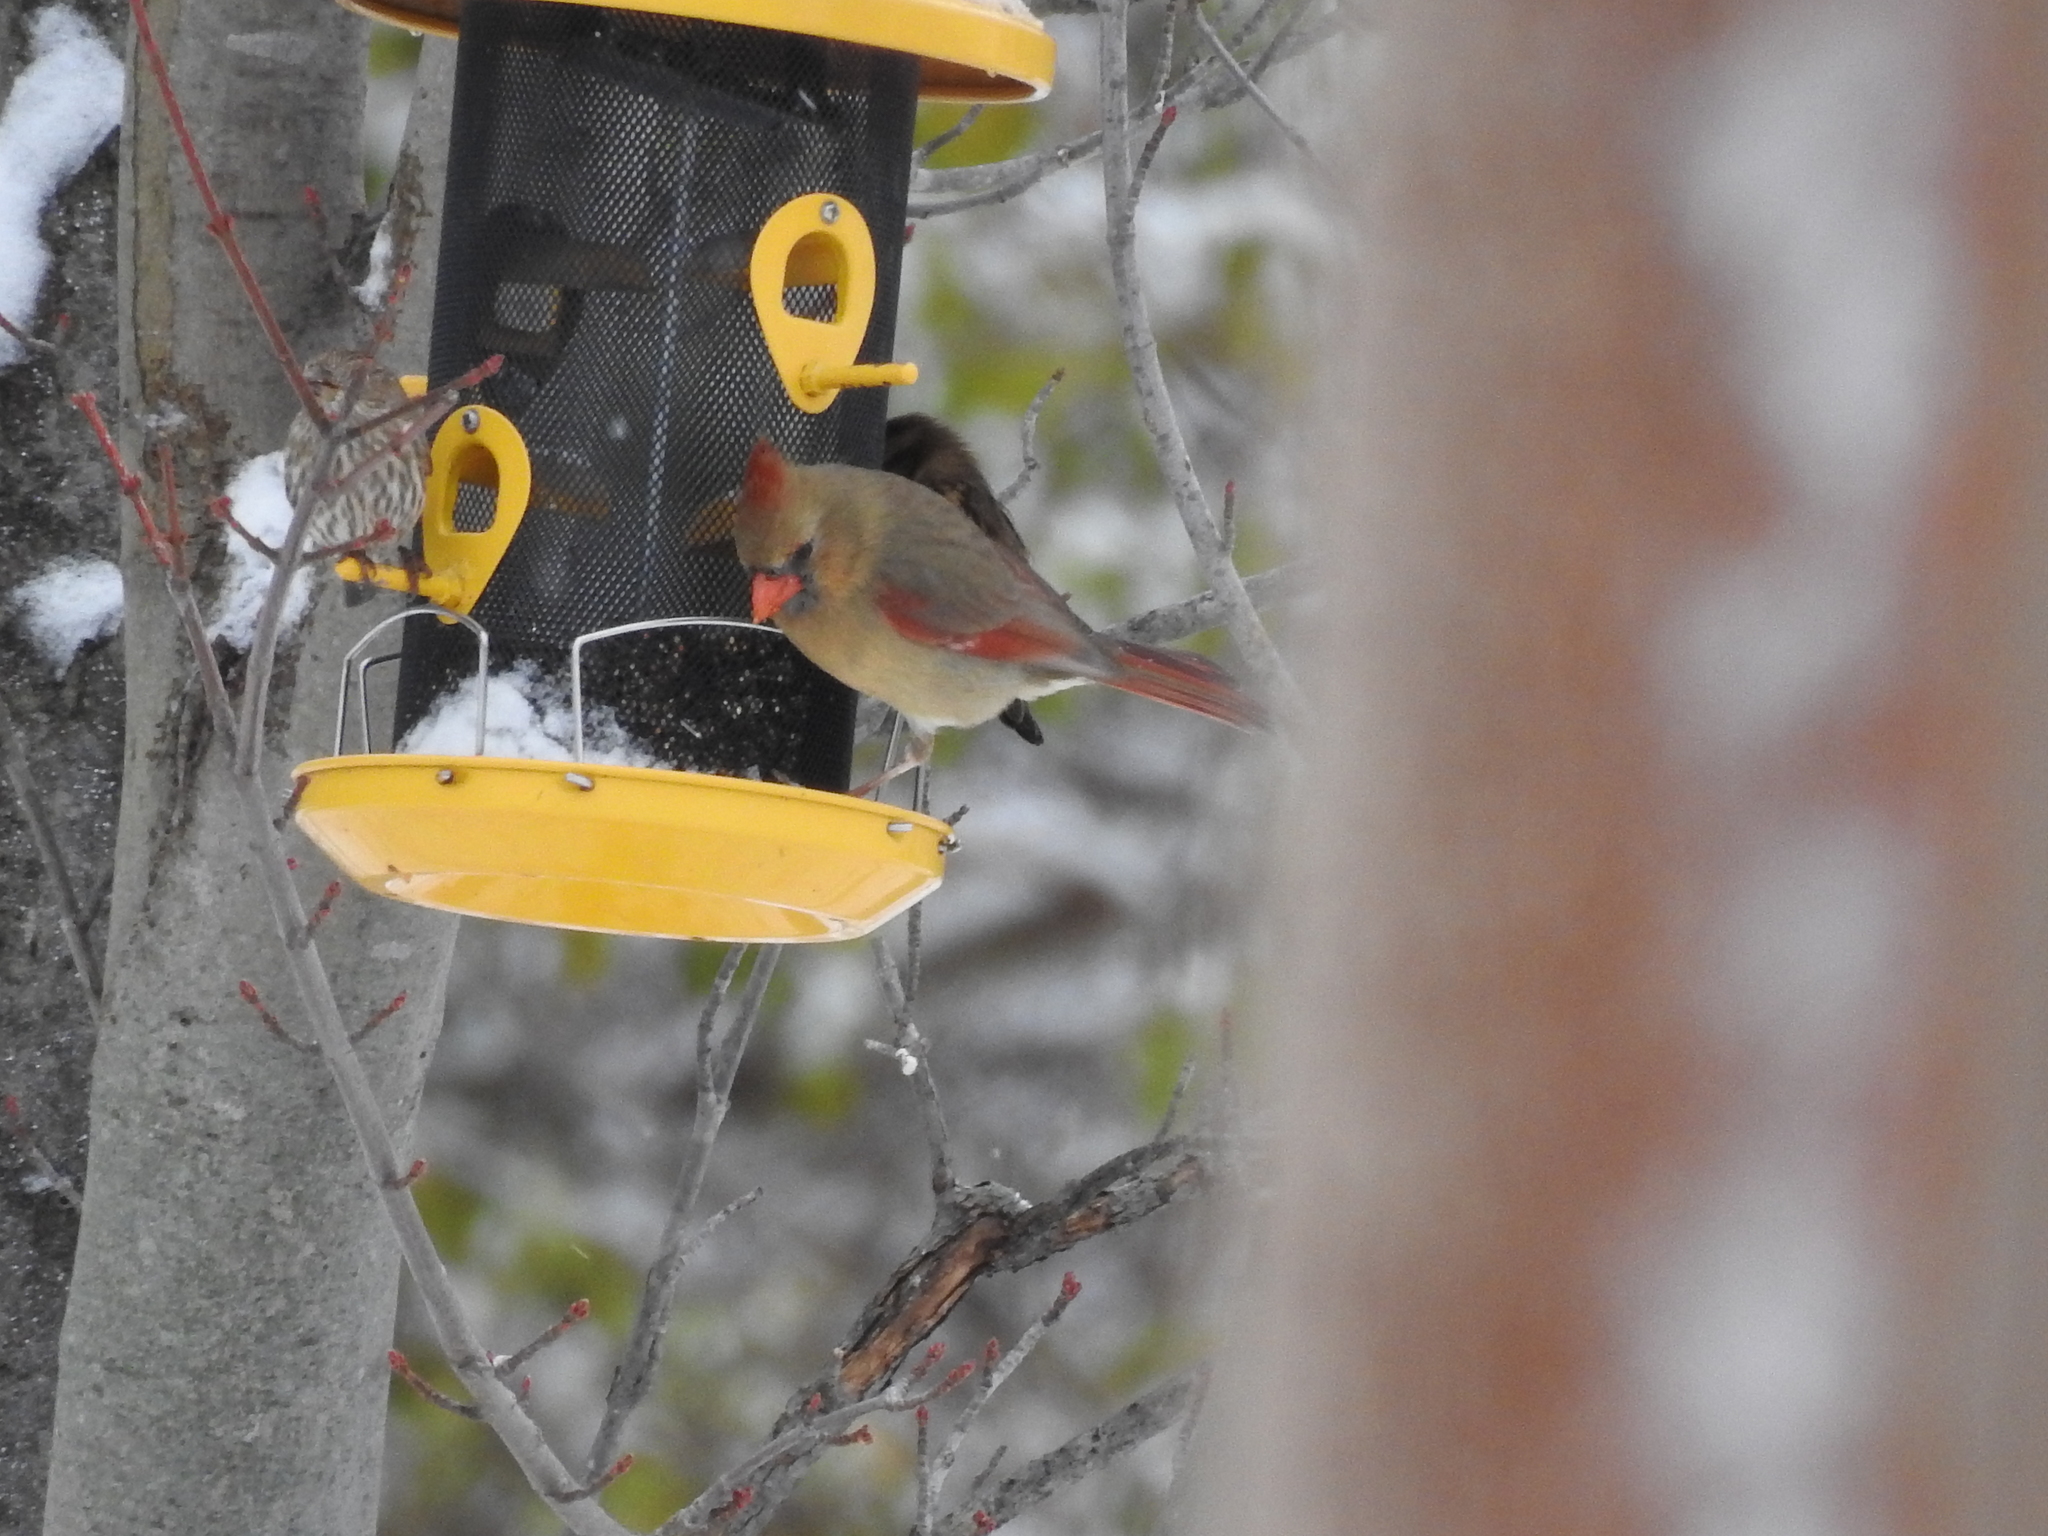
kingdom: Animalia
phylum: Chordata
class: Aves
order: Passeriformes
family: Cardinalidae
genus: Cardinalis
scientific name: Cardinalis cardinalis
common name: Northern cardinal
